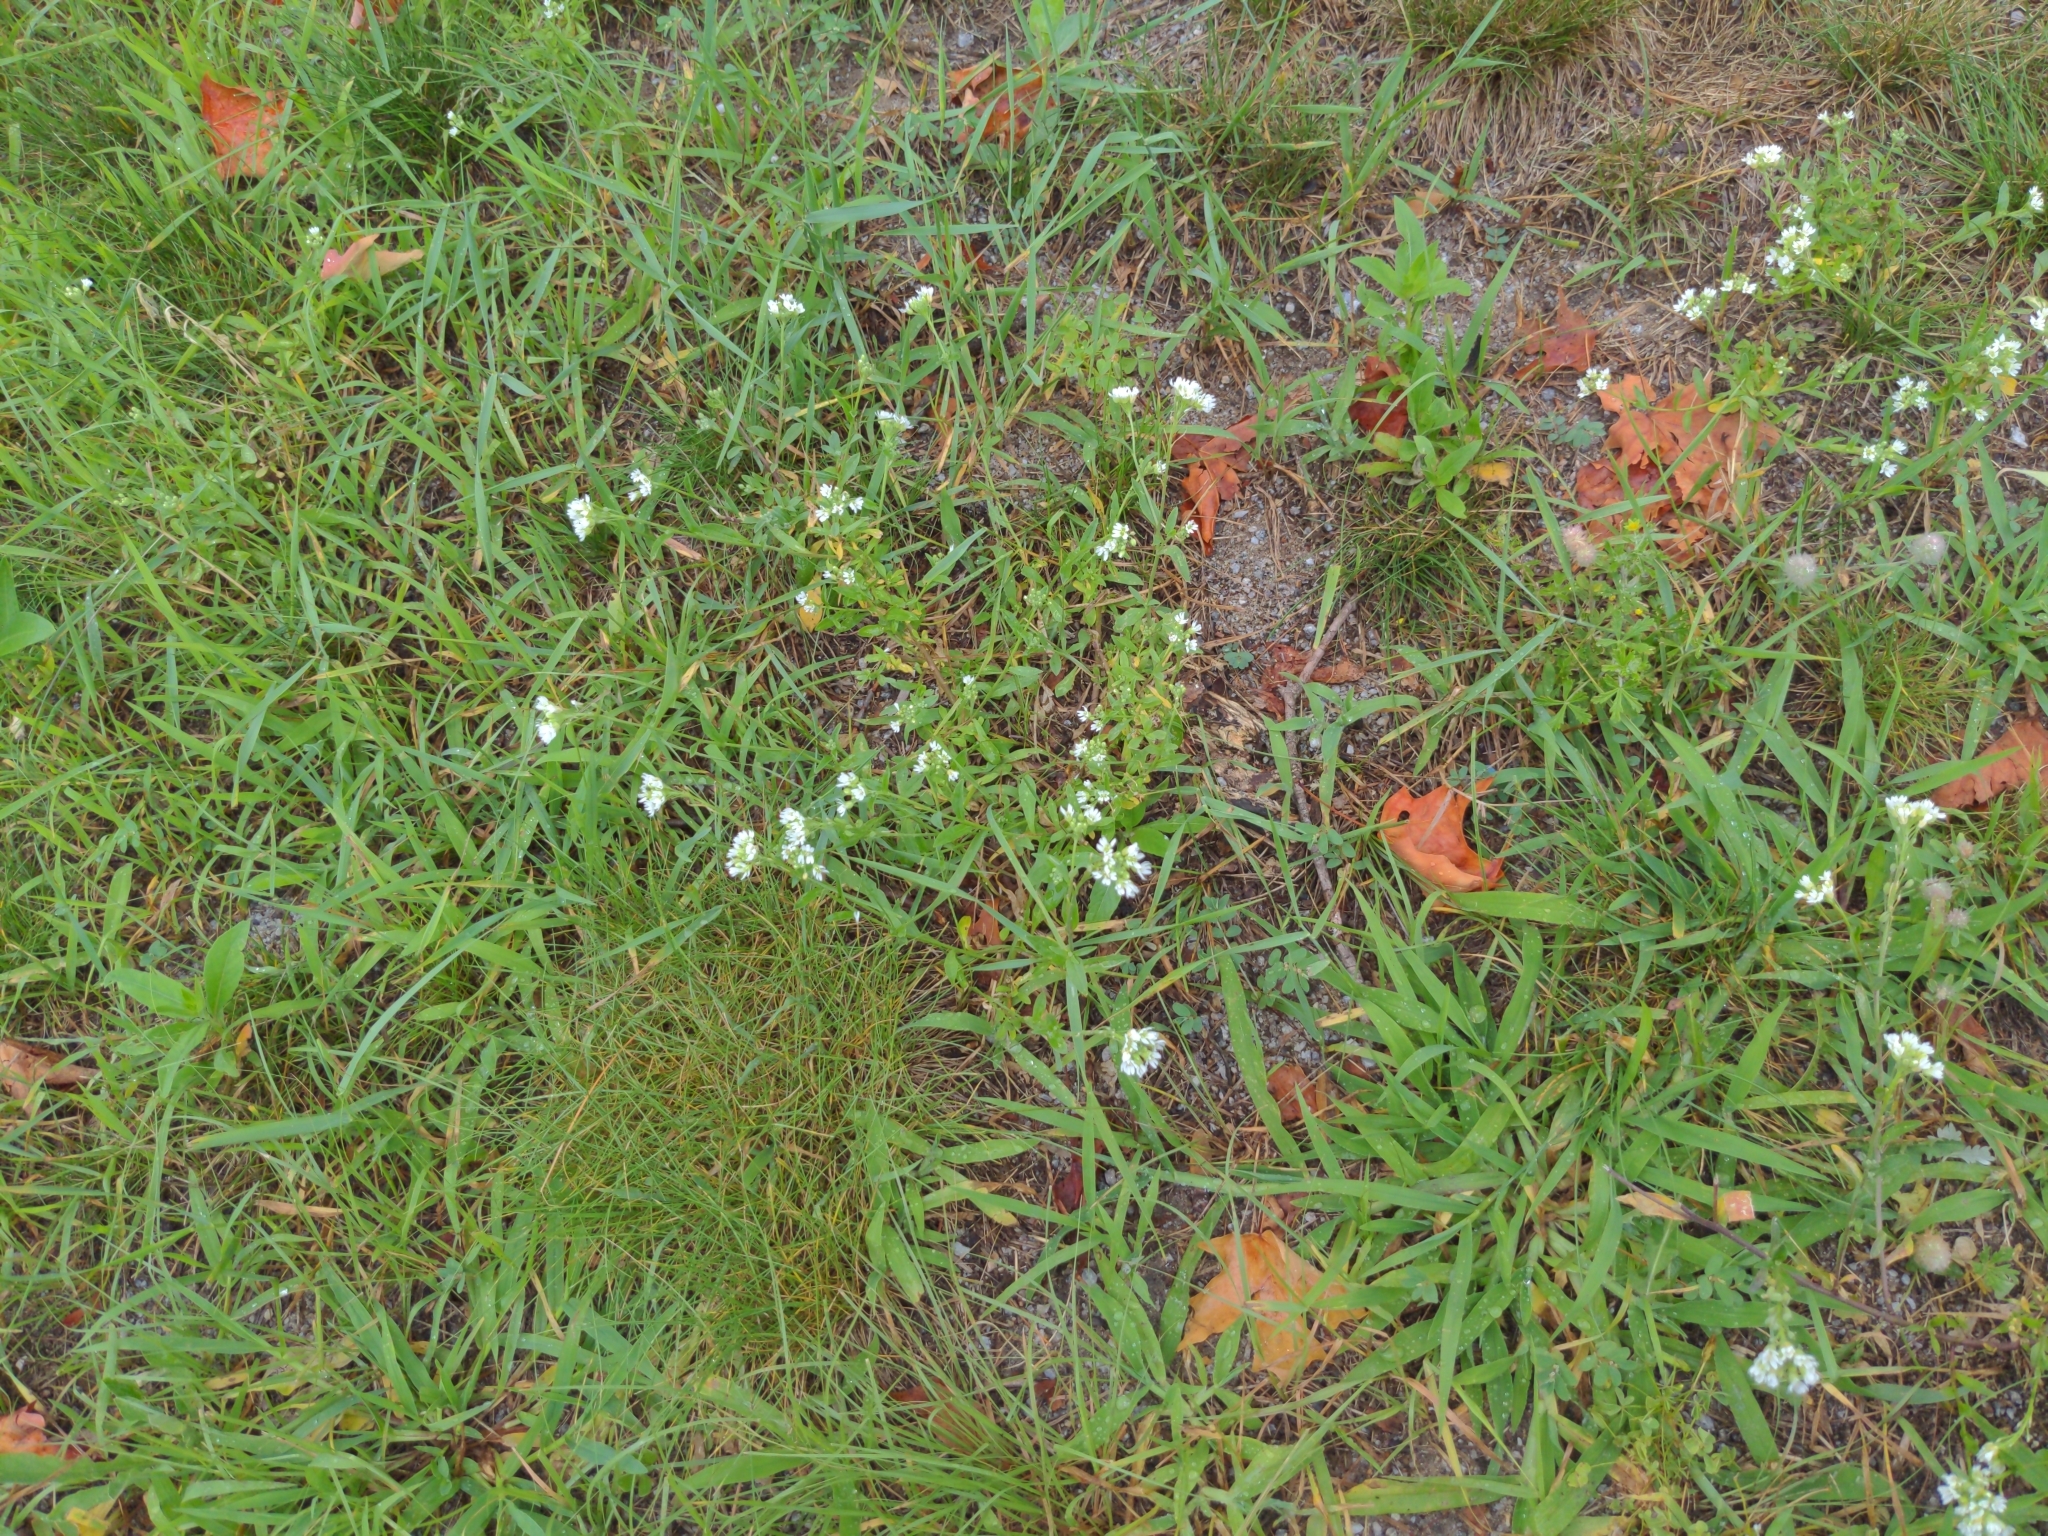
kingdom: Plantae
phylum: Tracheophyta
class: Magnoliopsida
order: Brassicales
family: Brassicaceae
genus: Berteroa
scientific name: Berteroa incana
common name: Hoary alison
